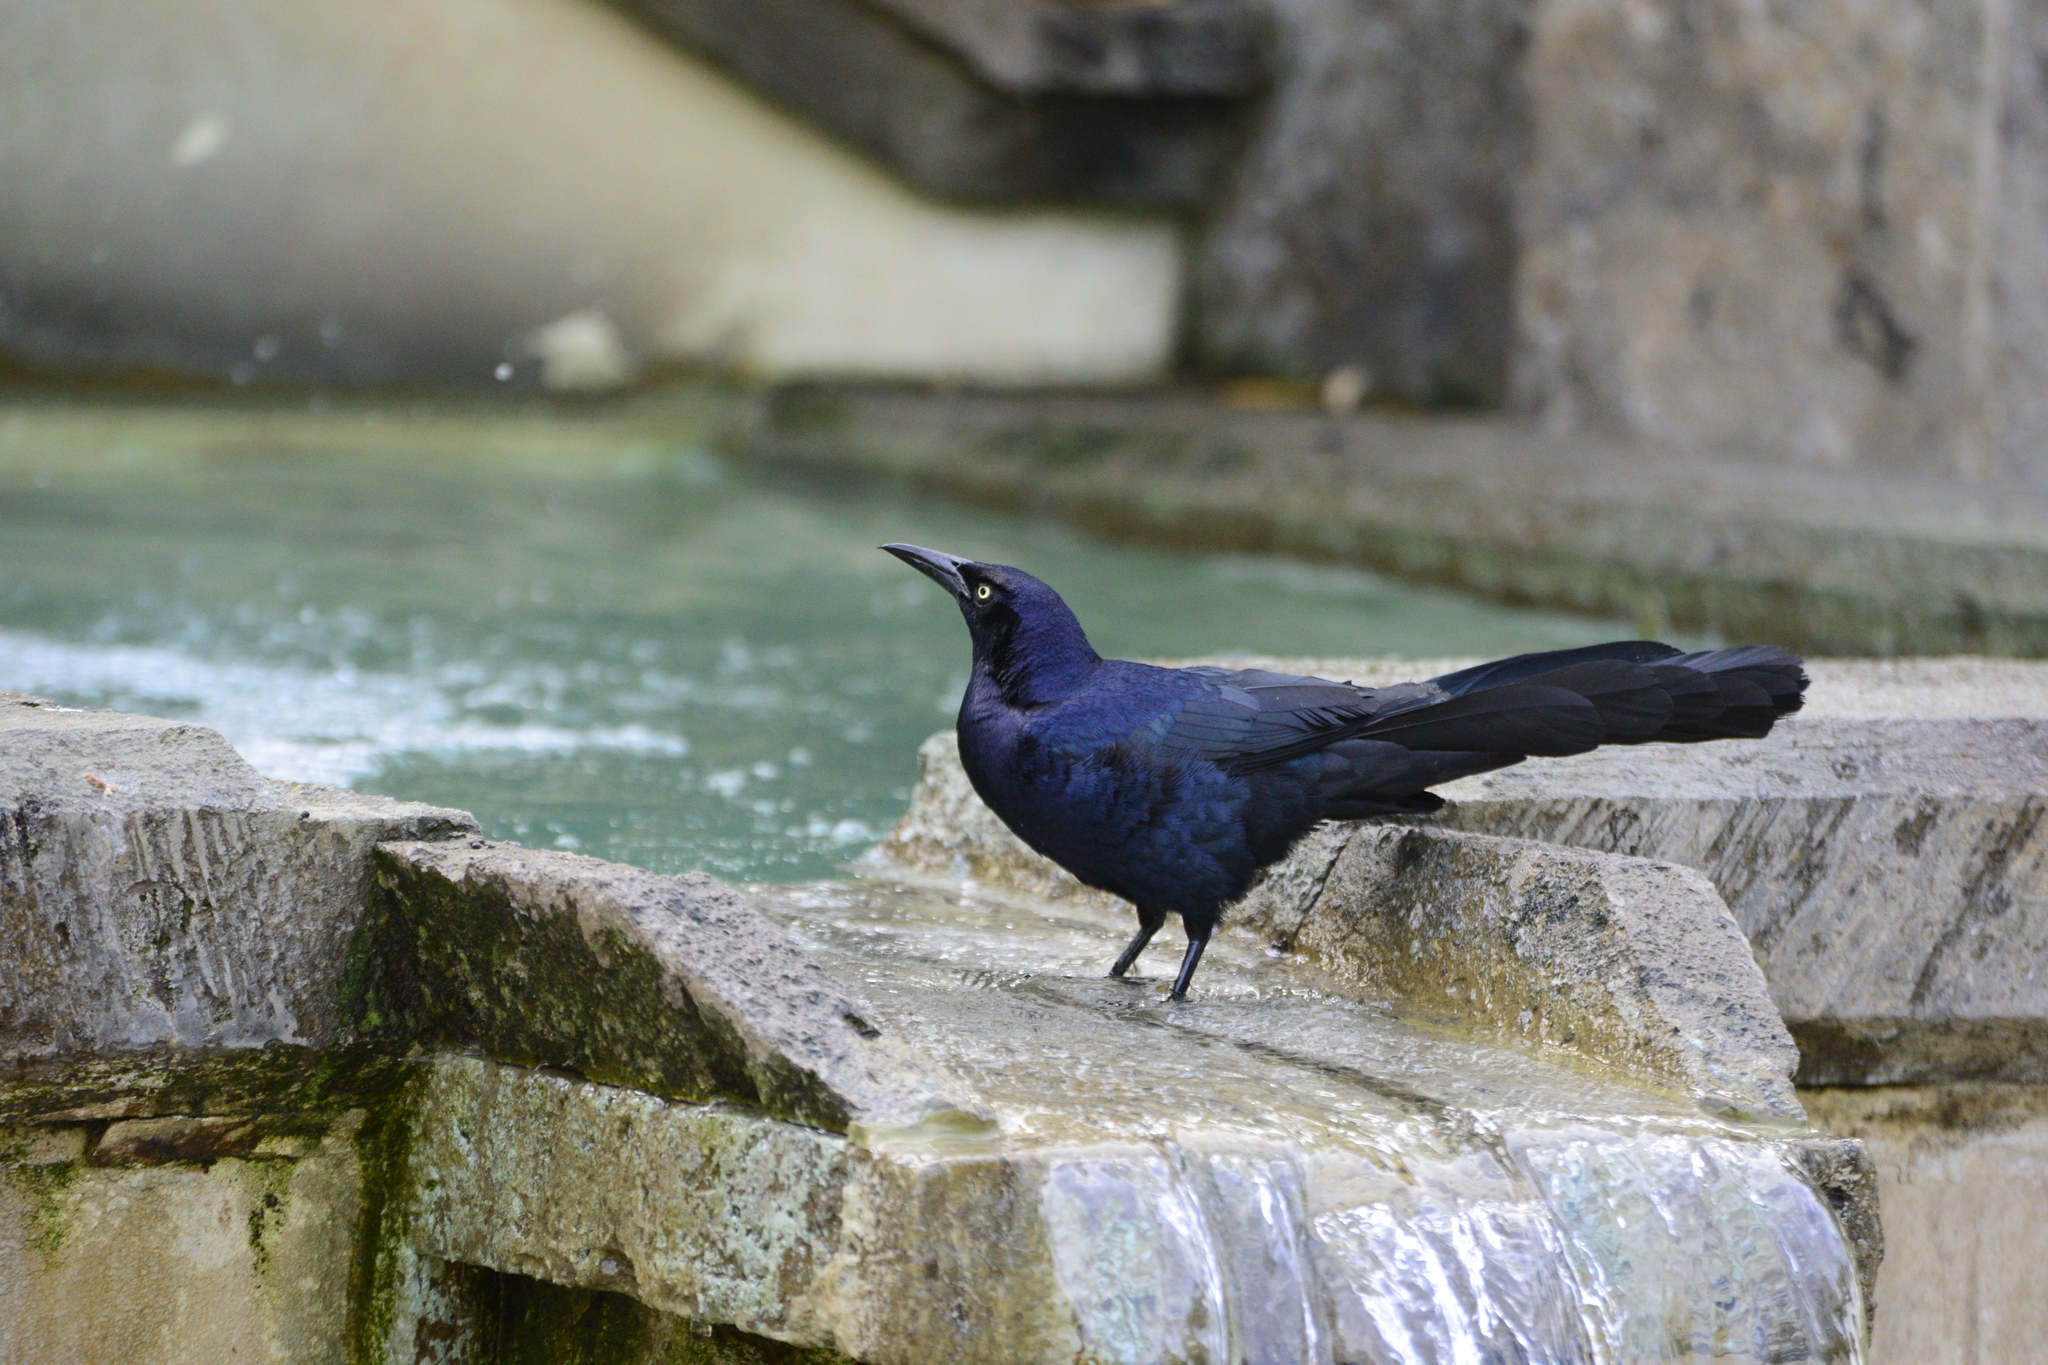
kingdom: Animalia
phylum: Chordata
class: Aves
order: Passeriformes
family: Icteridae
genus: Quiscalus
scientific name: Quiscalus mexicanus
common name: Great-tailed grackle
